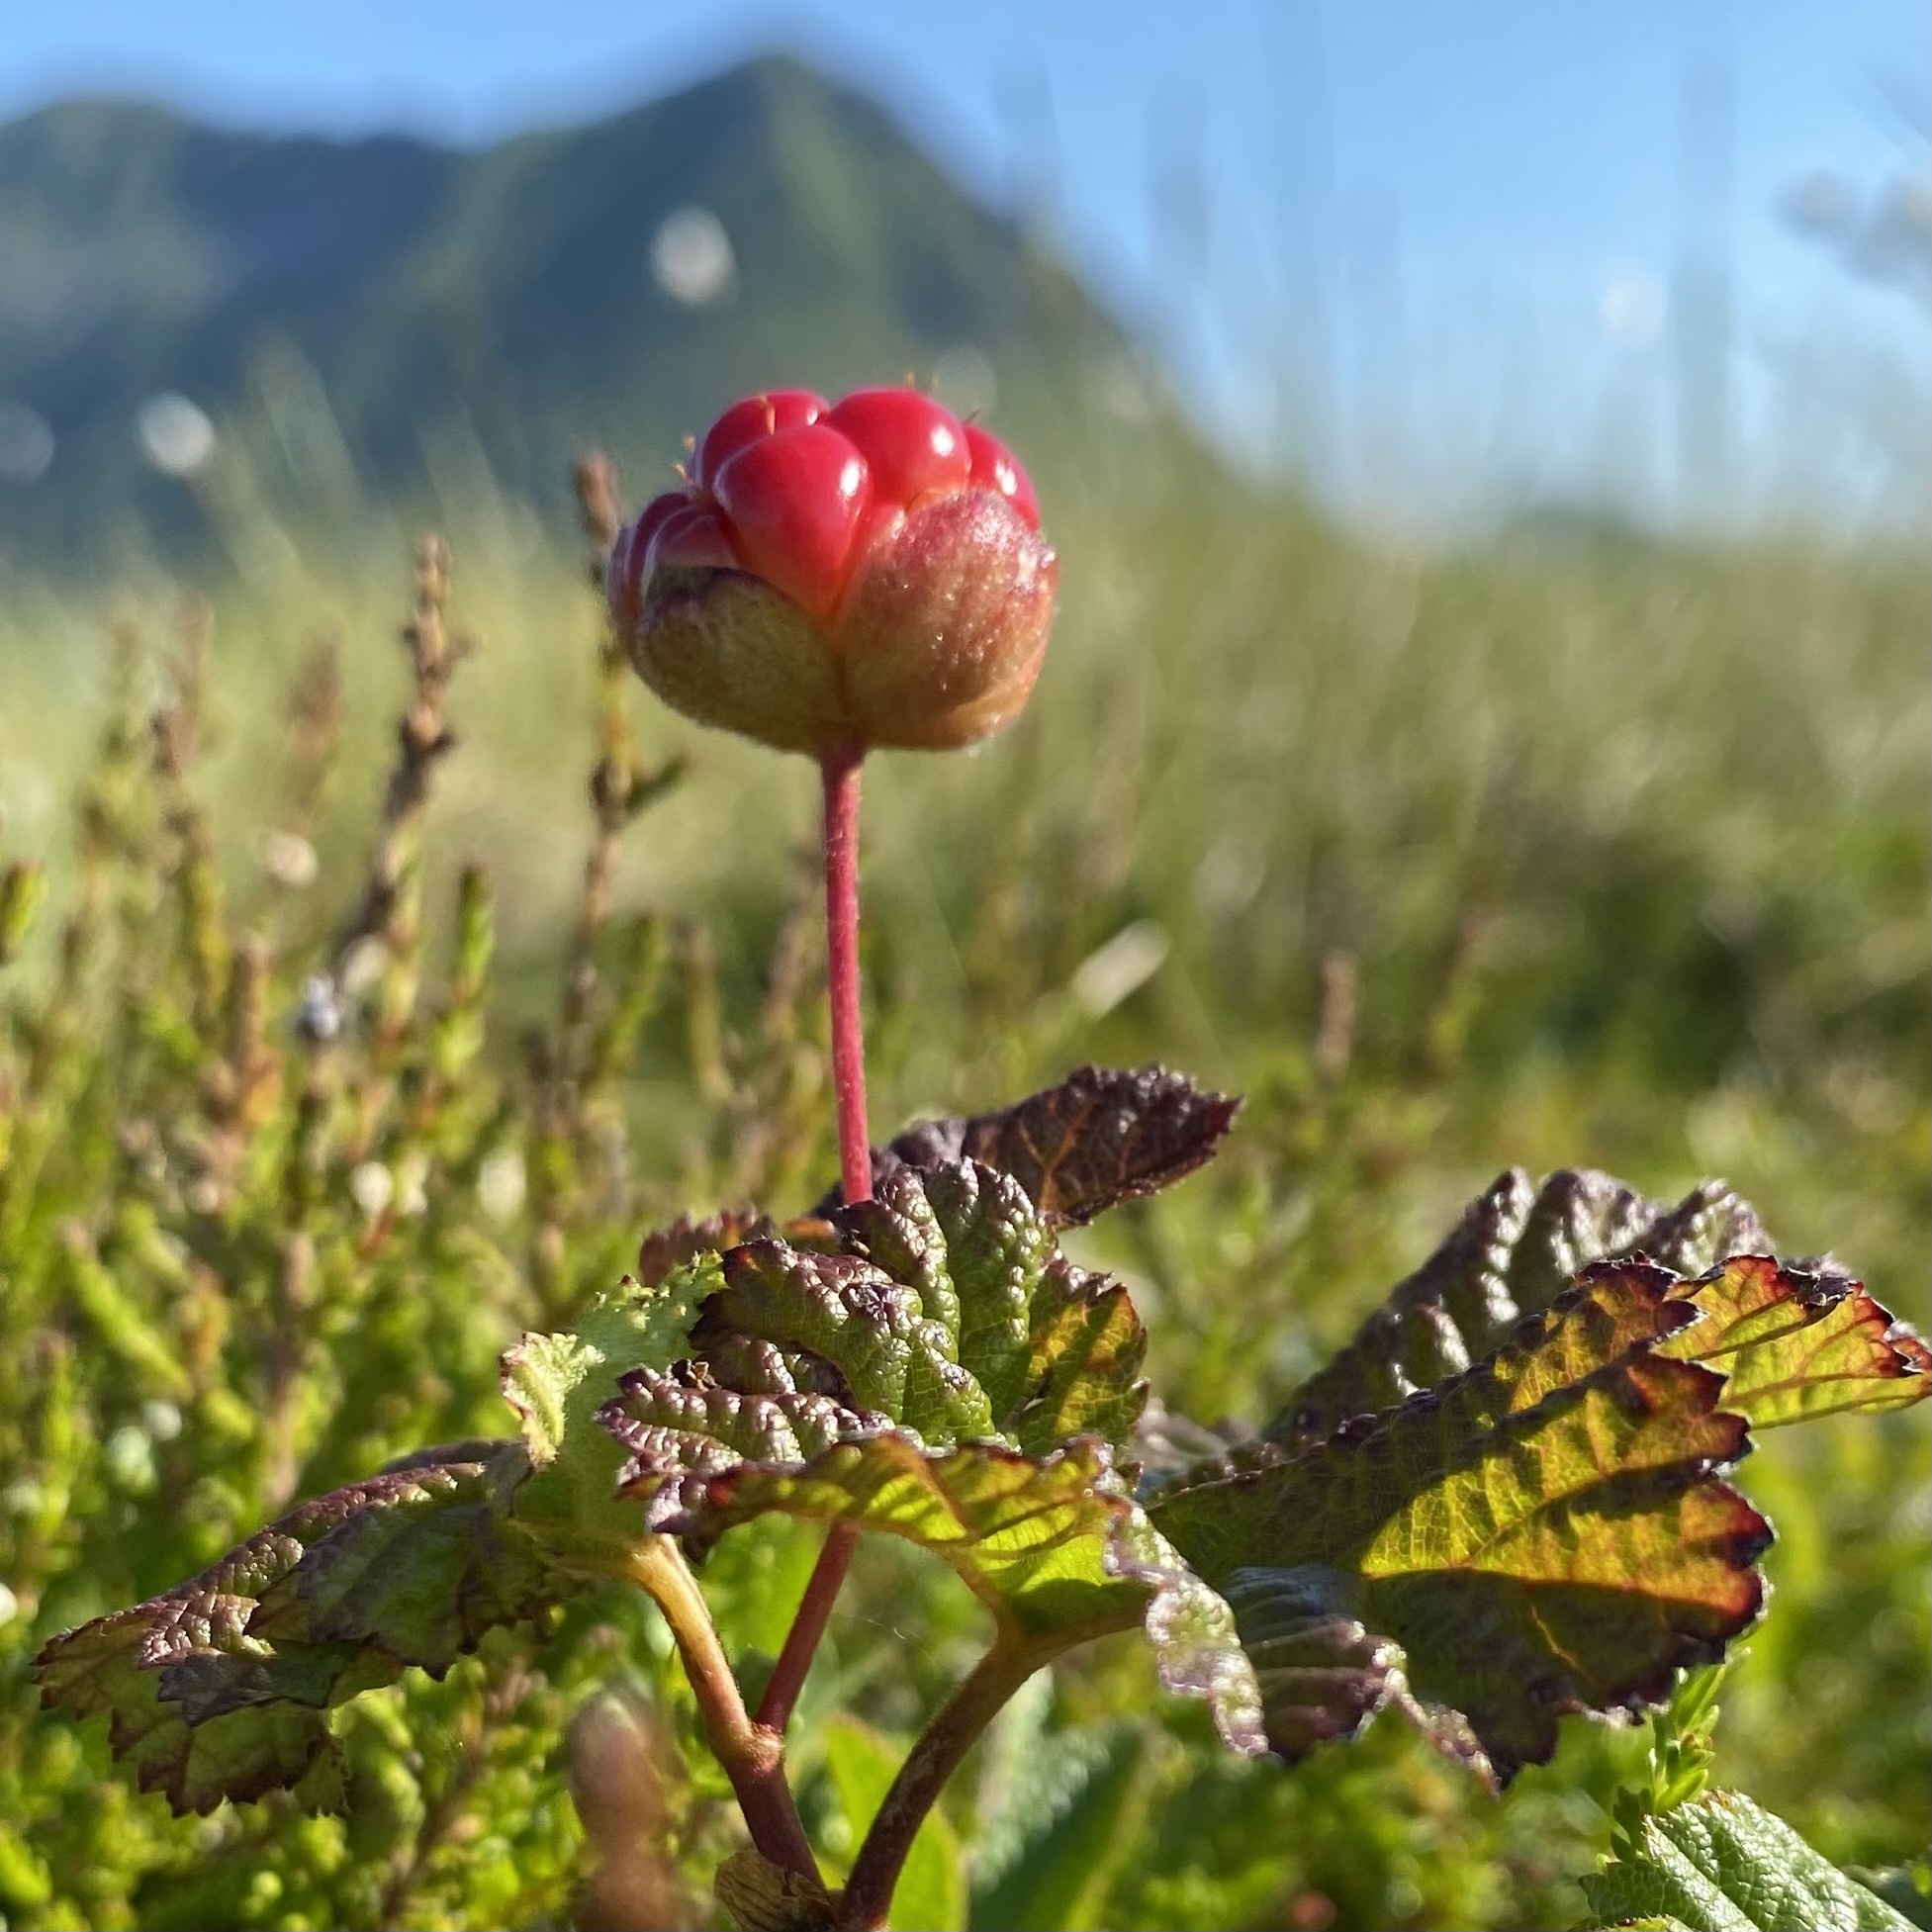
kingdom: Plantae
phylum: Tracheophyta
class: Magnoliopsida
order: Rosales
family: Rosaceae
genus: Rubus
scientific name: Rubus chamaemorus
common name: Cloudberry
